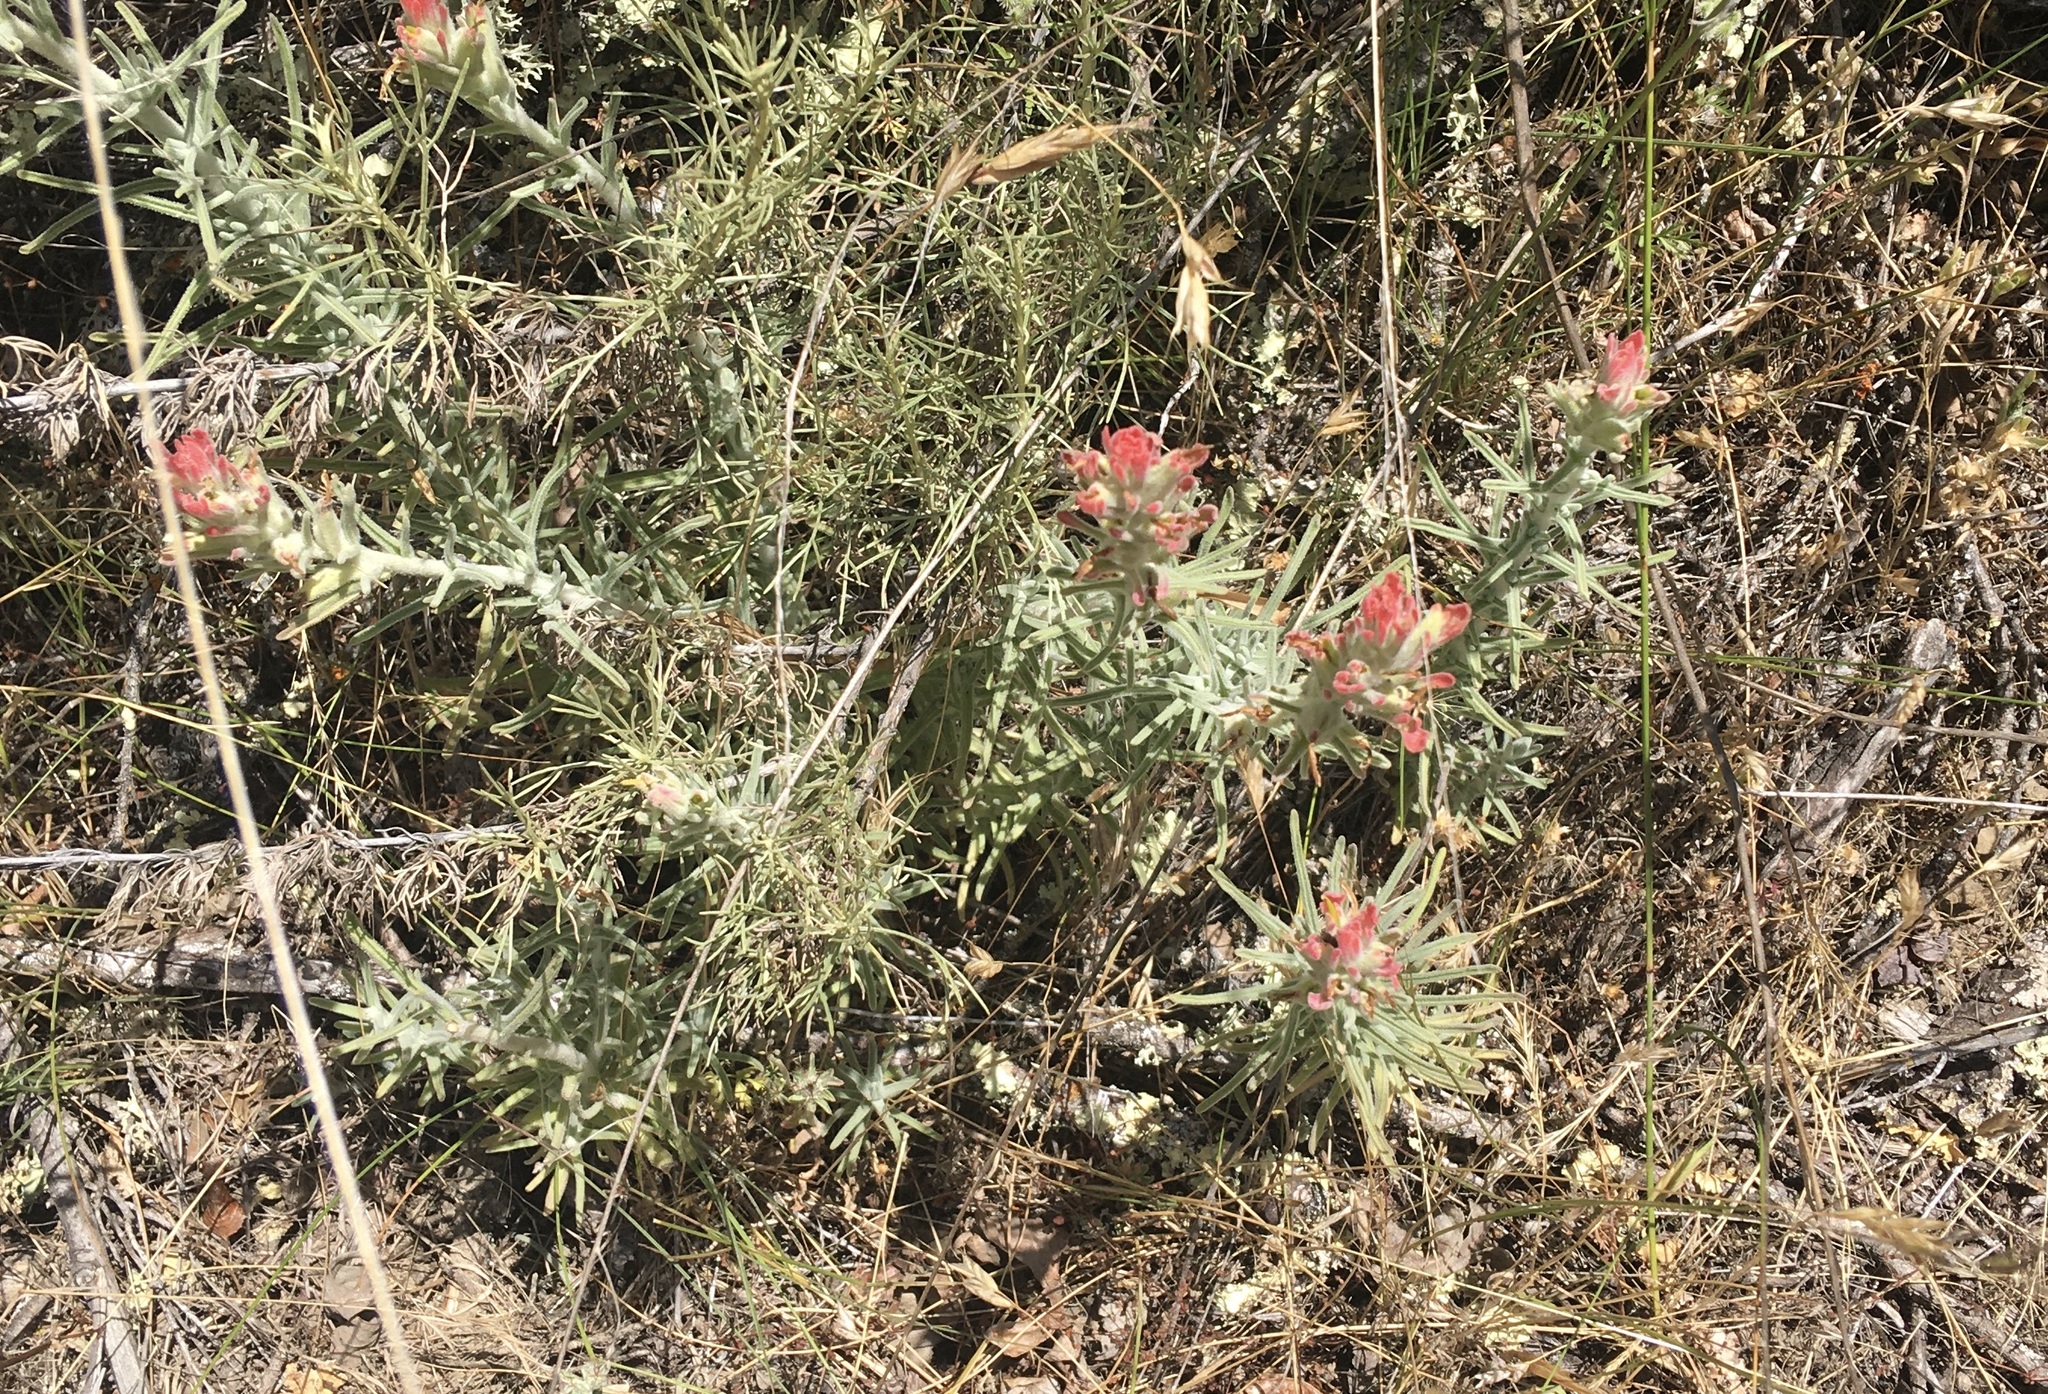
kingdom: Plantae
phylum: Tracheophyta
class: Magnoliopsida
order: Lamiales
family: Orobanchaceae
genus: Castilleja
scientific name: Castilleja foliolosa
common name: Woolly indian paintbrush
